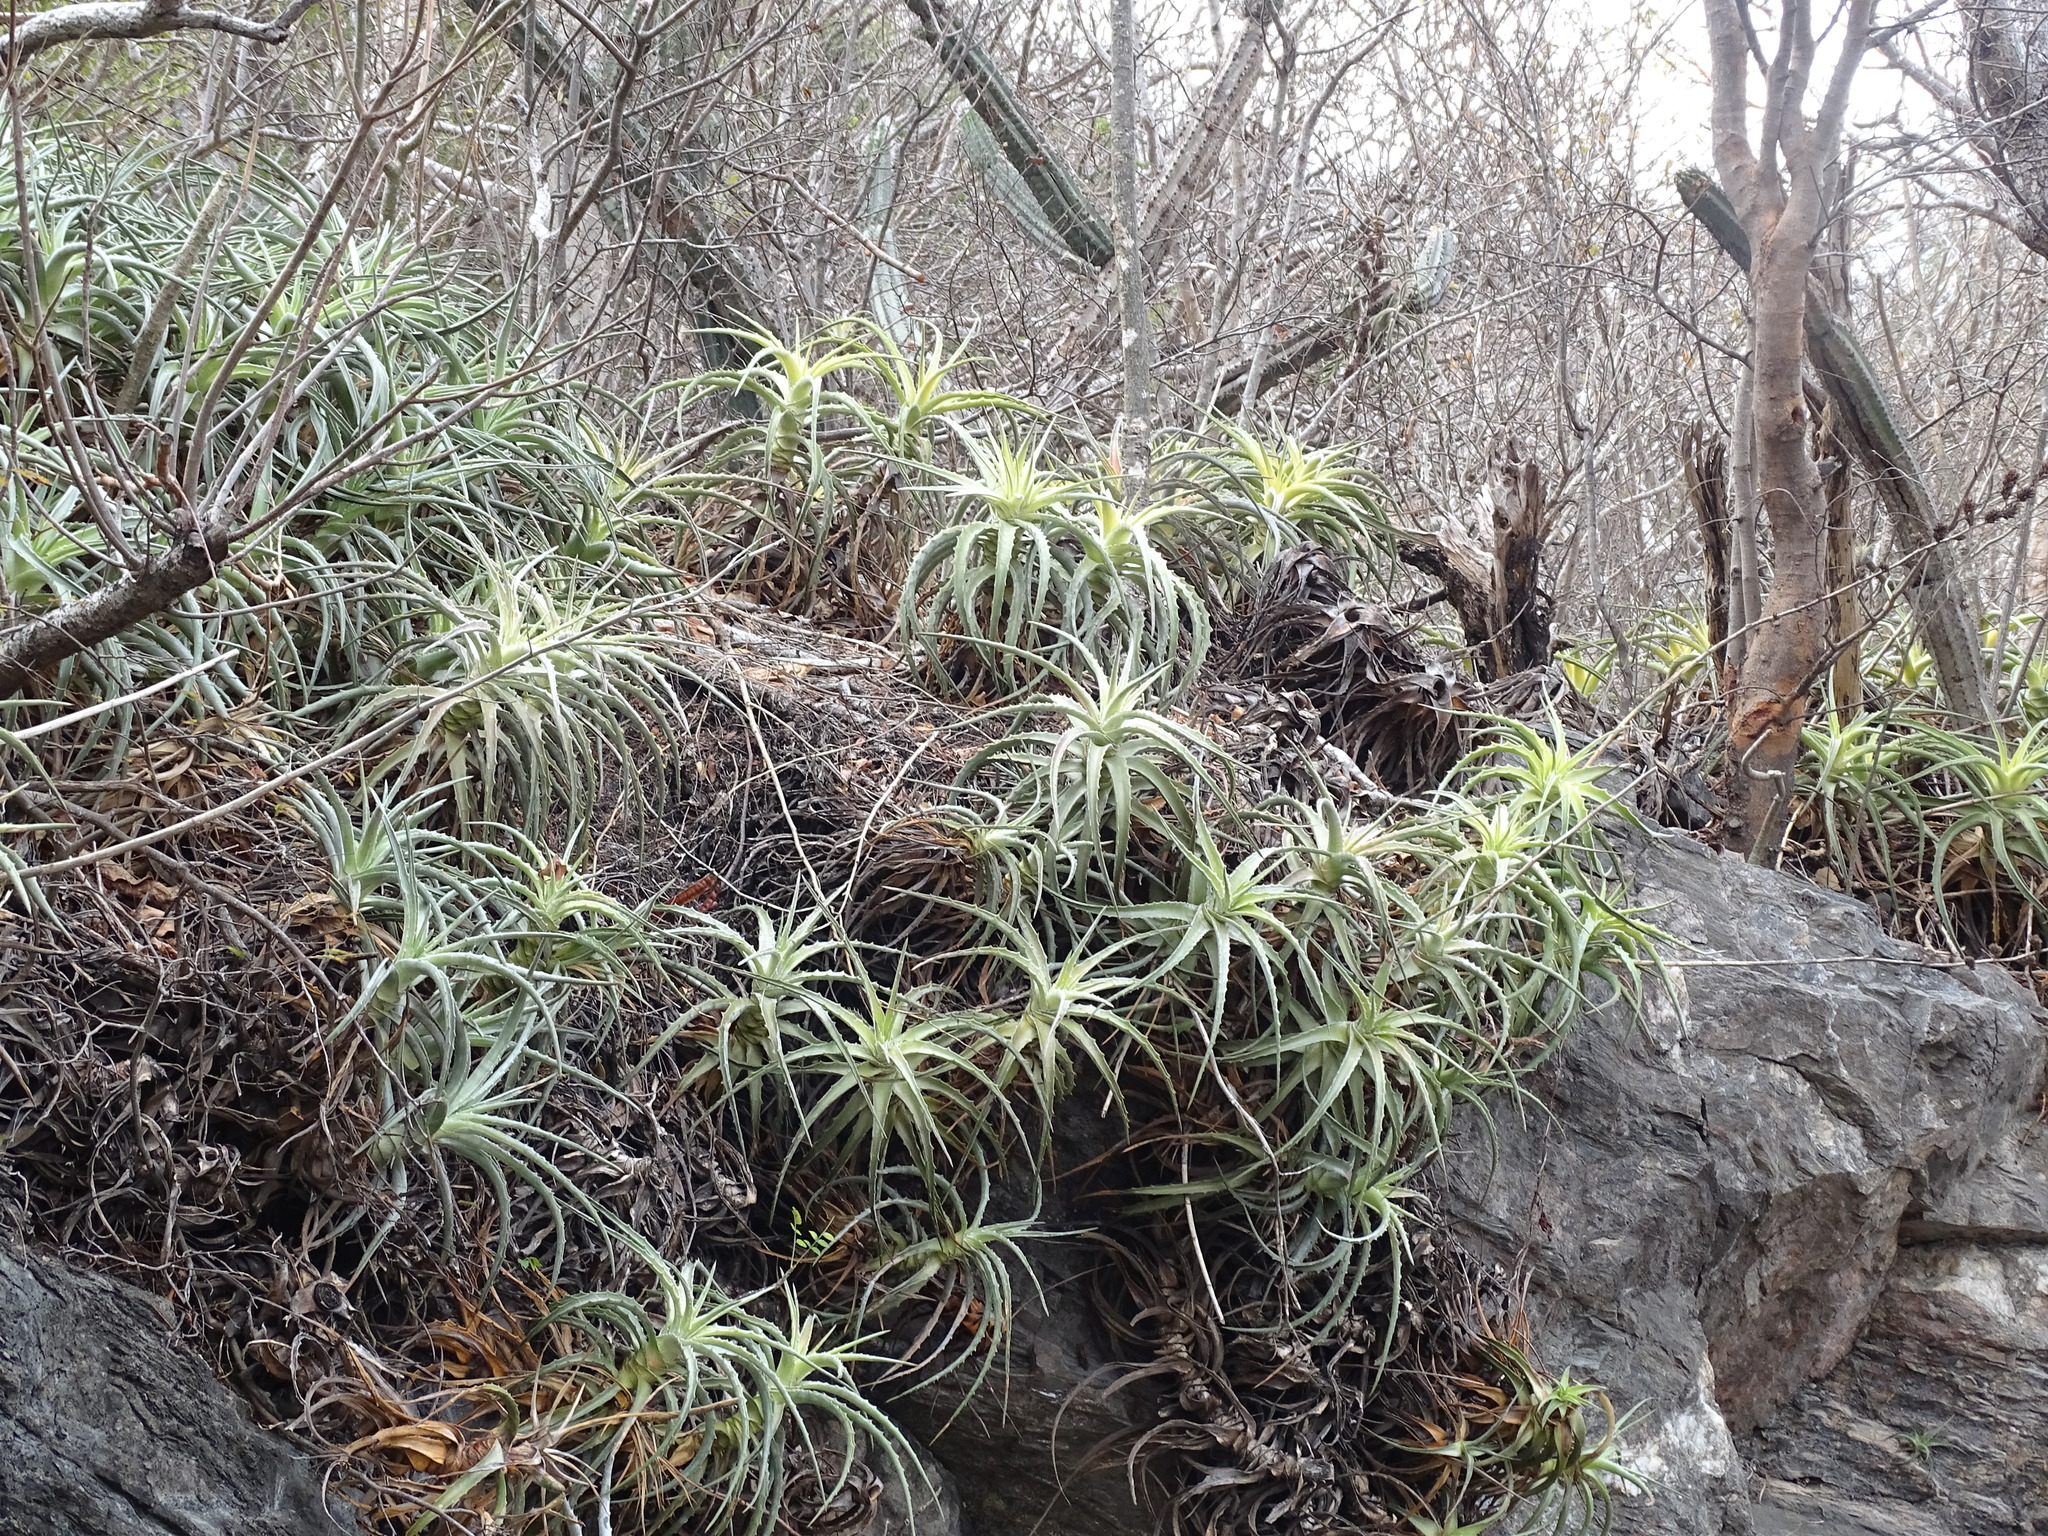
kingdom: Plantae
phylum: Tracheophyta
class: Liliopsida
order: Poales
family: Bromeliaceae
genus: Hechtia
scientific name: Hechtia isthmusiana
